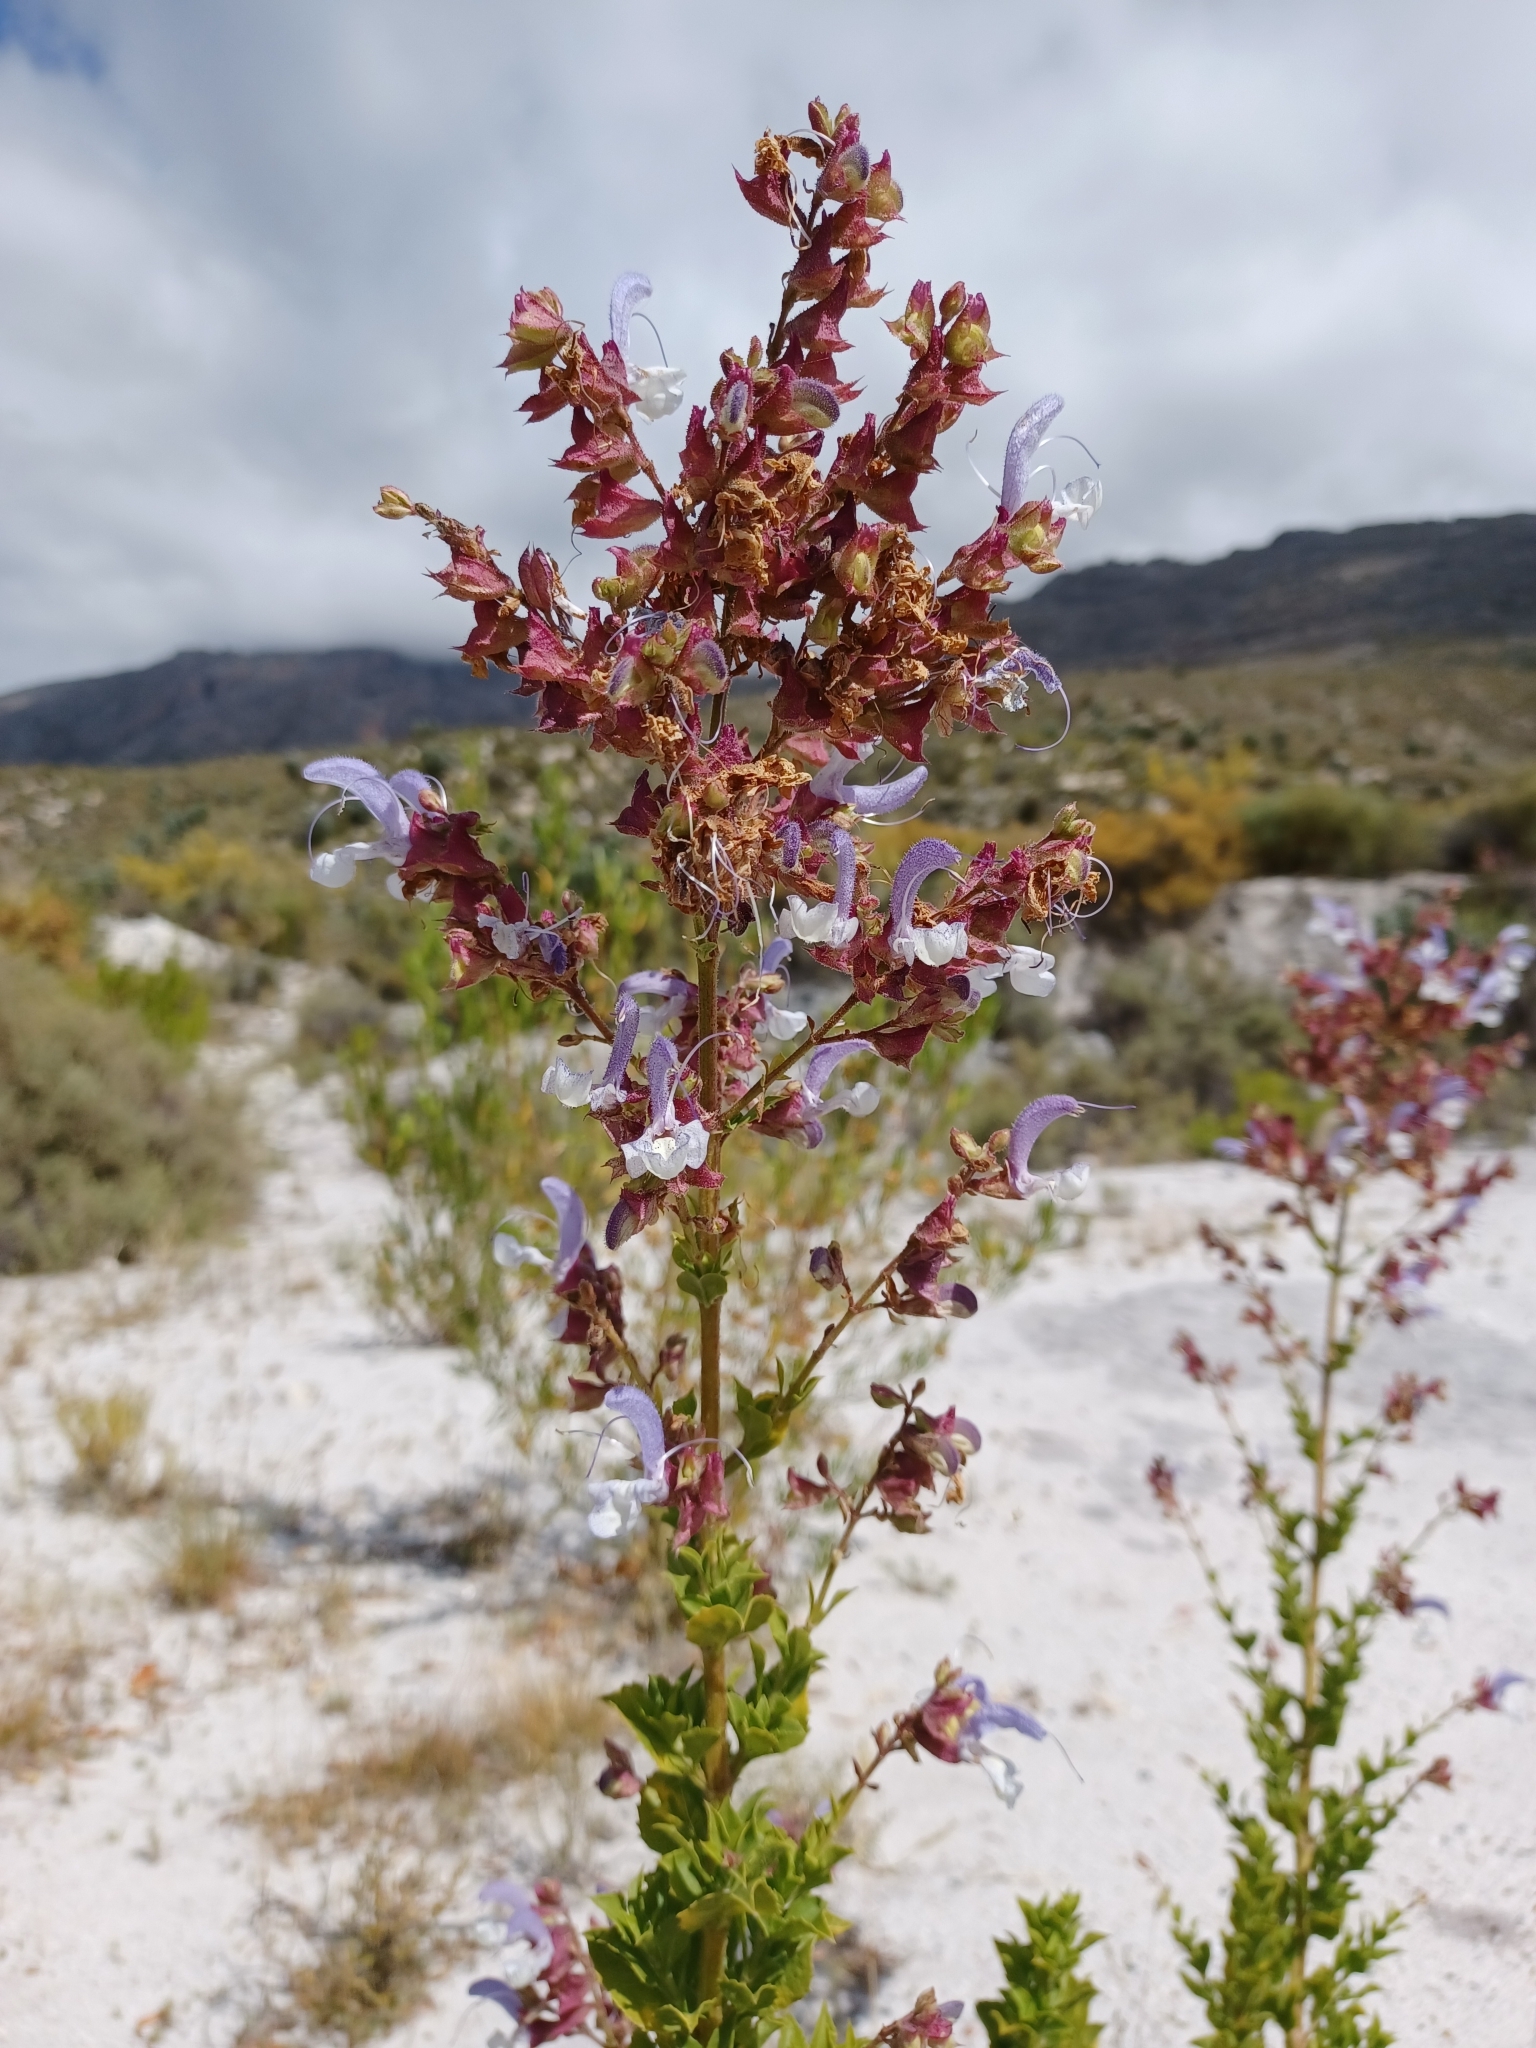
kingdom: Plantae
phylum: Tracheophyta
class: Magnoliopsida
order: Lamiales
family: Lamiaceae
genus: Salvia
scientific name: Salvia chamelaeagnea
